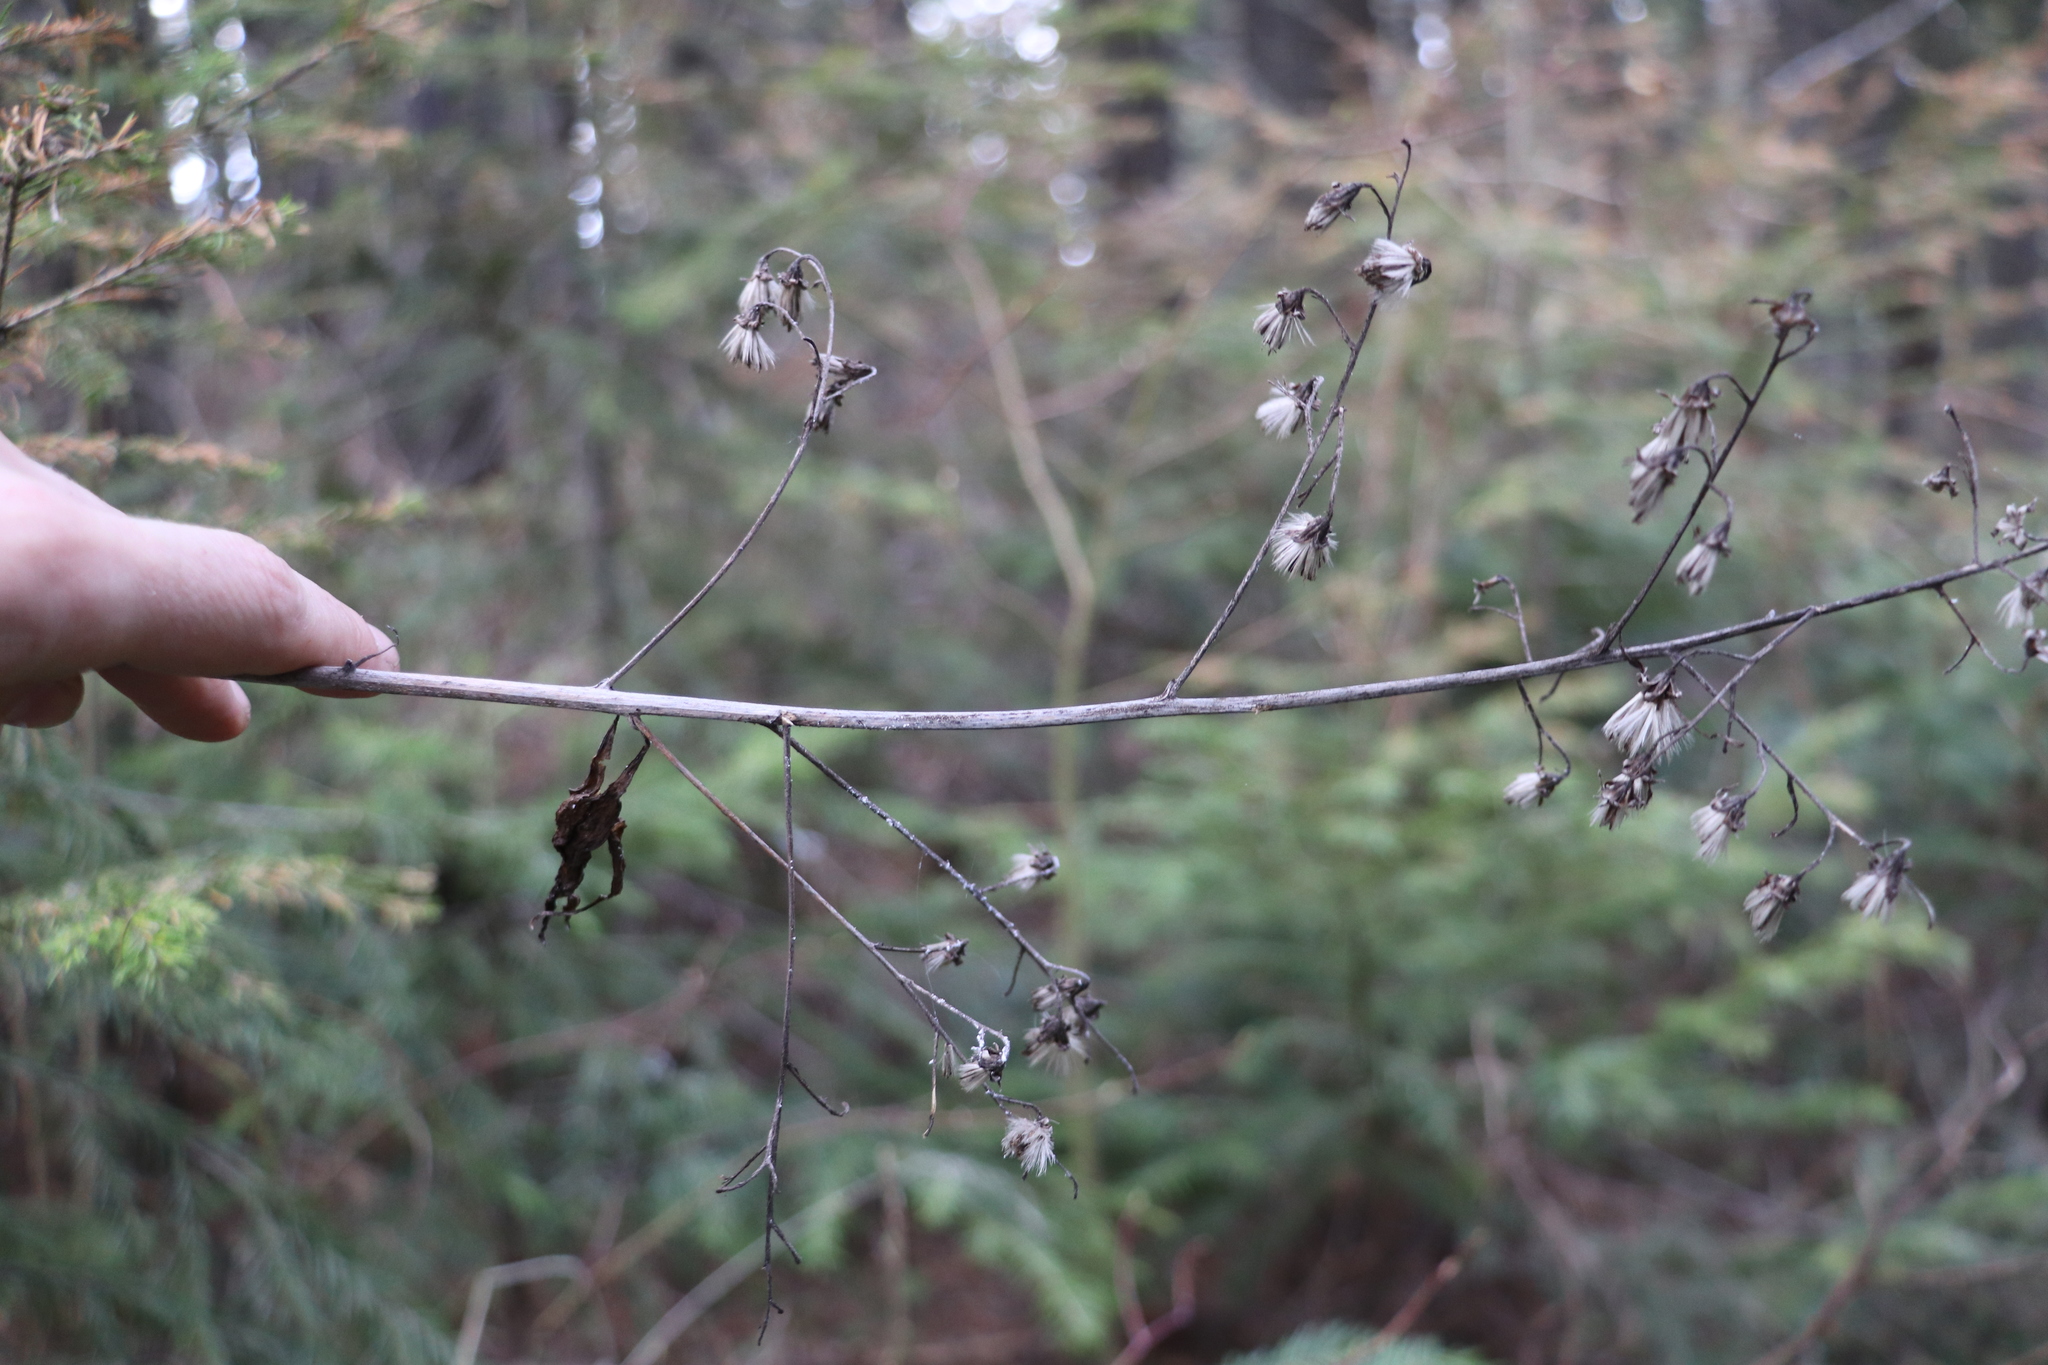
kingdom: Plantae
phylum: Tracheophyta
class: Magnoliopsida
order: Asterales
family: Asteraceae
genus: Parasenecio
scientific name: Parasenecio hastatus
